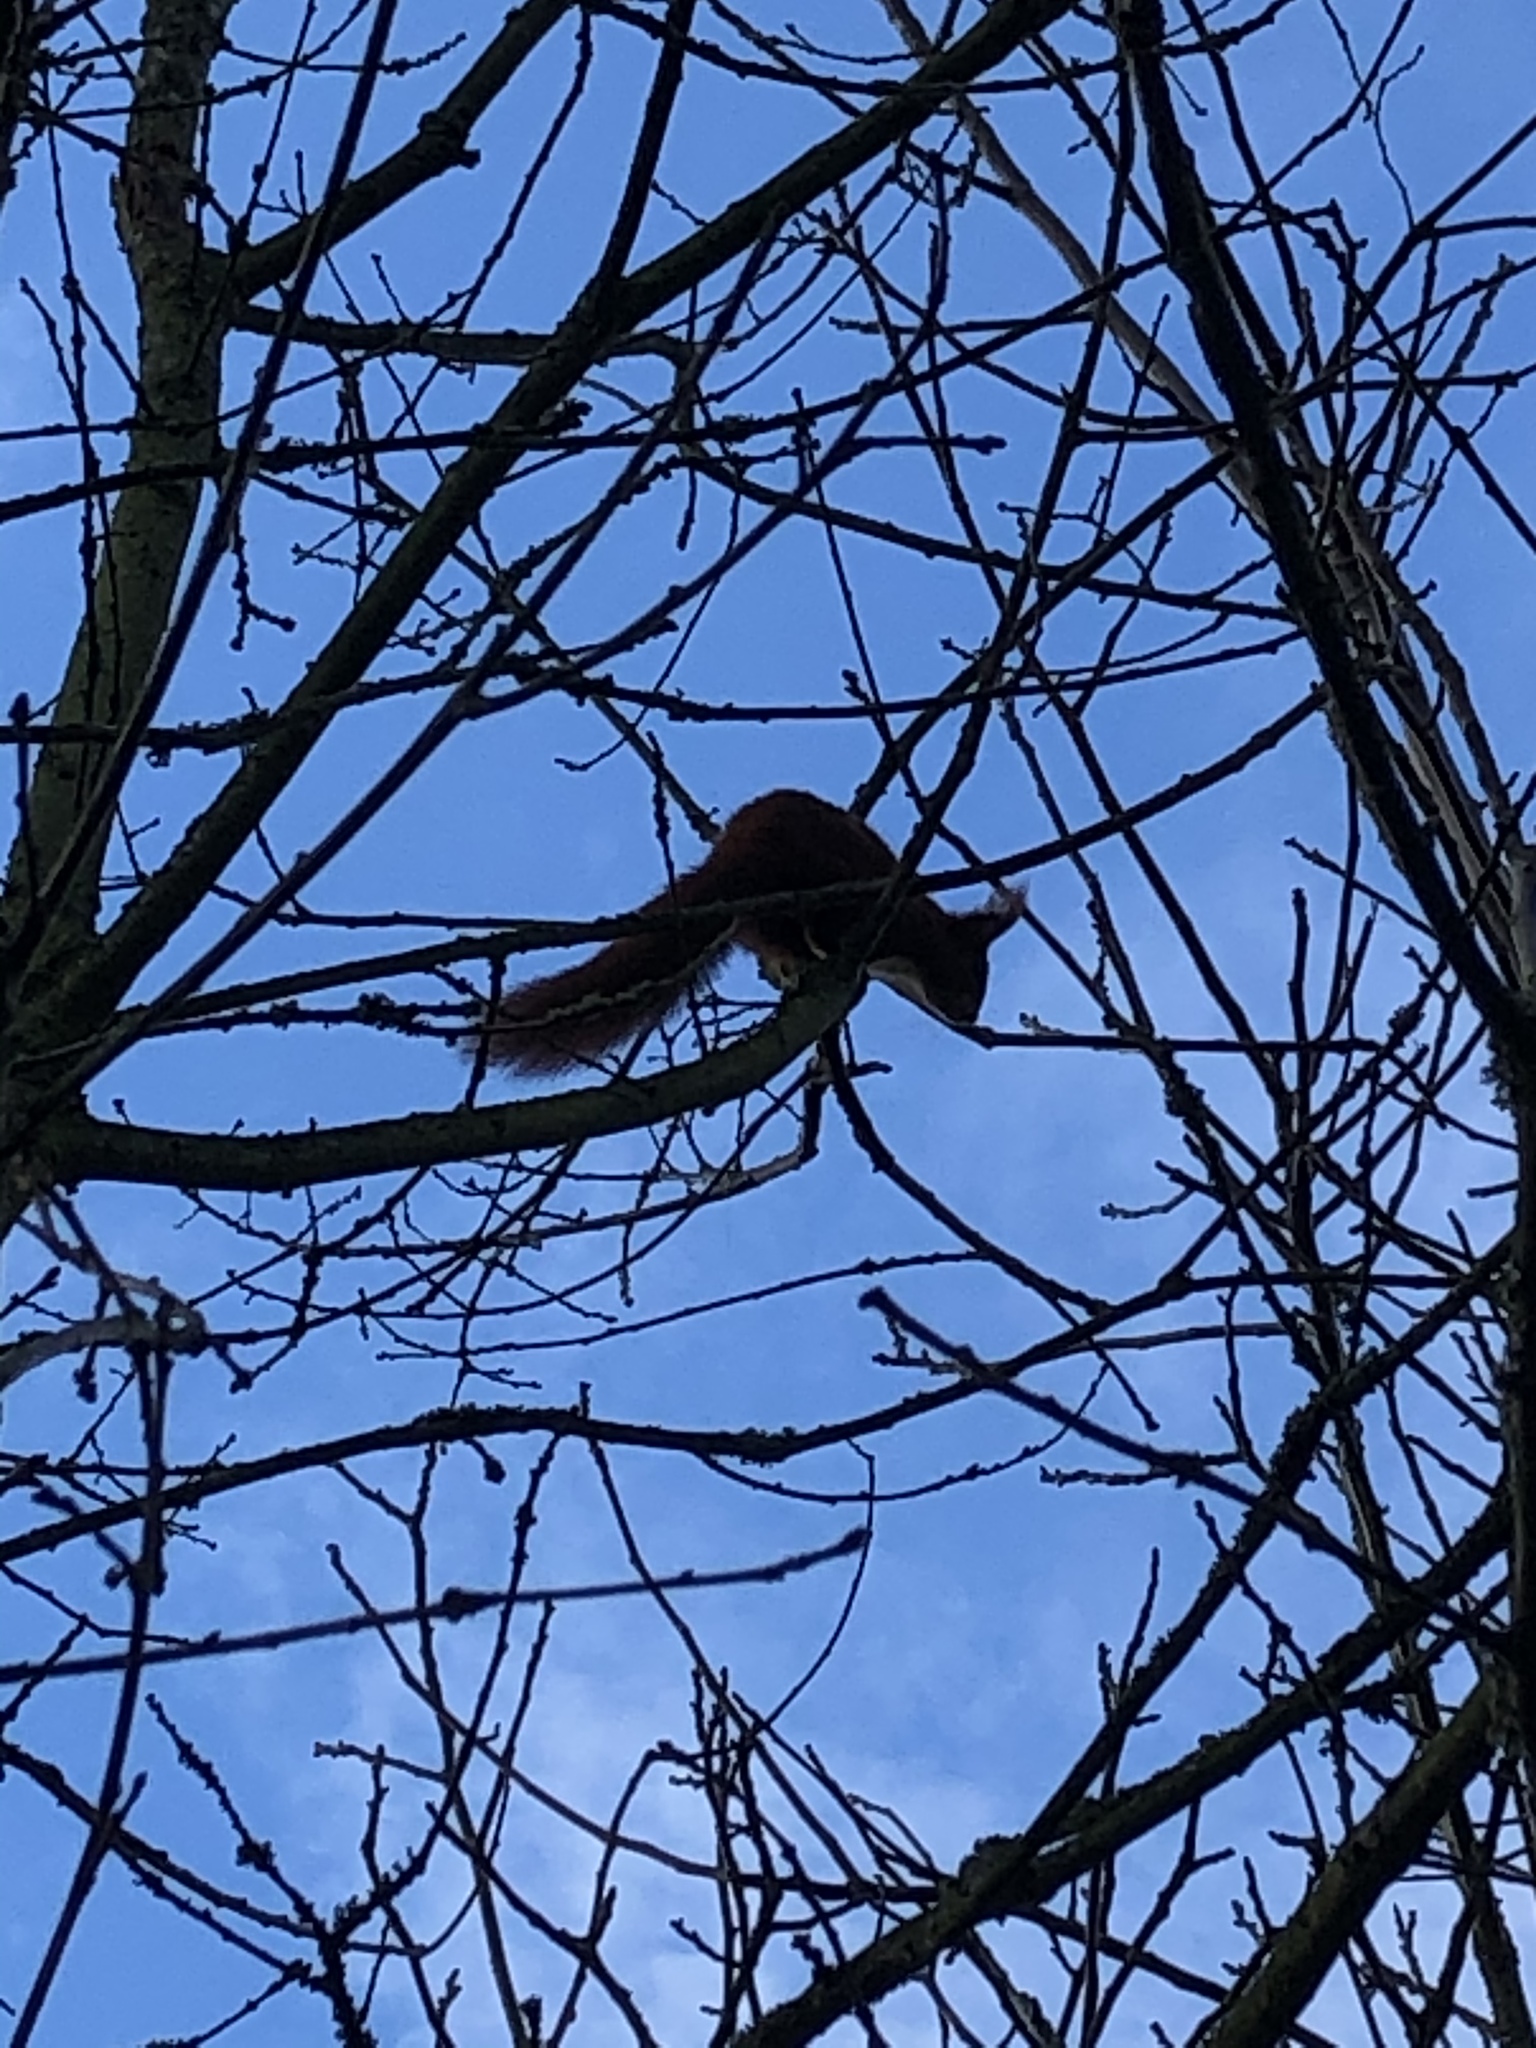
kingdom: Animalia
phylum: Chordata
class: Mammalia
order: Rodentia
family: Sciuridae
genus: Sciurus
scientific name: Sciurus vulgaris
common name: Eurasian red squirrel
